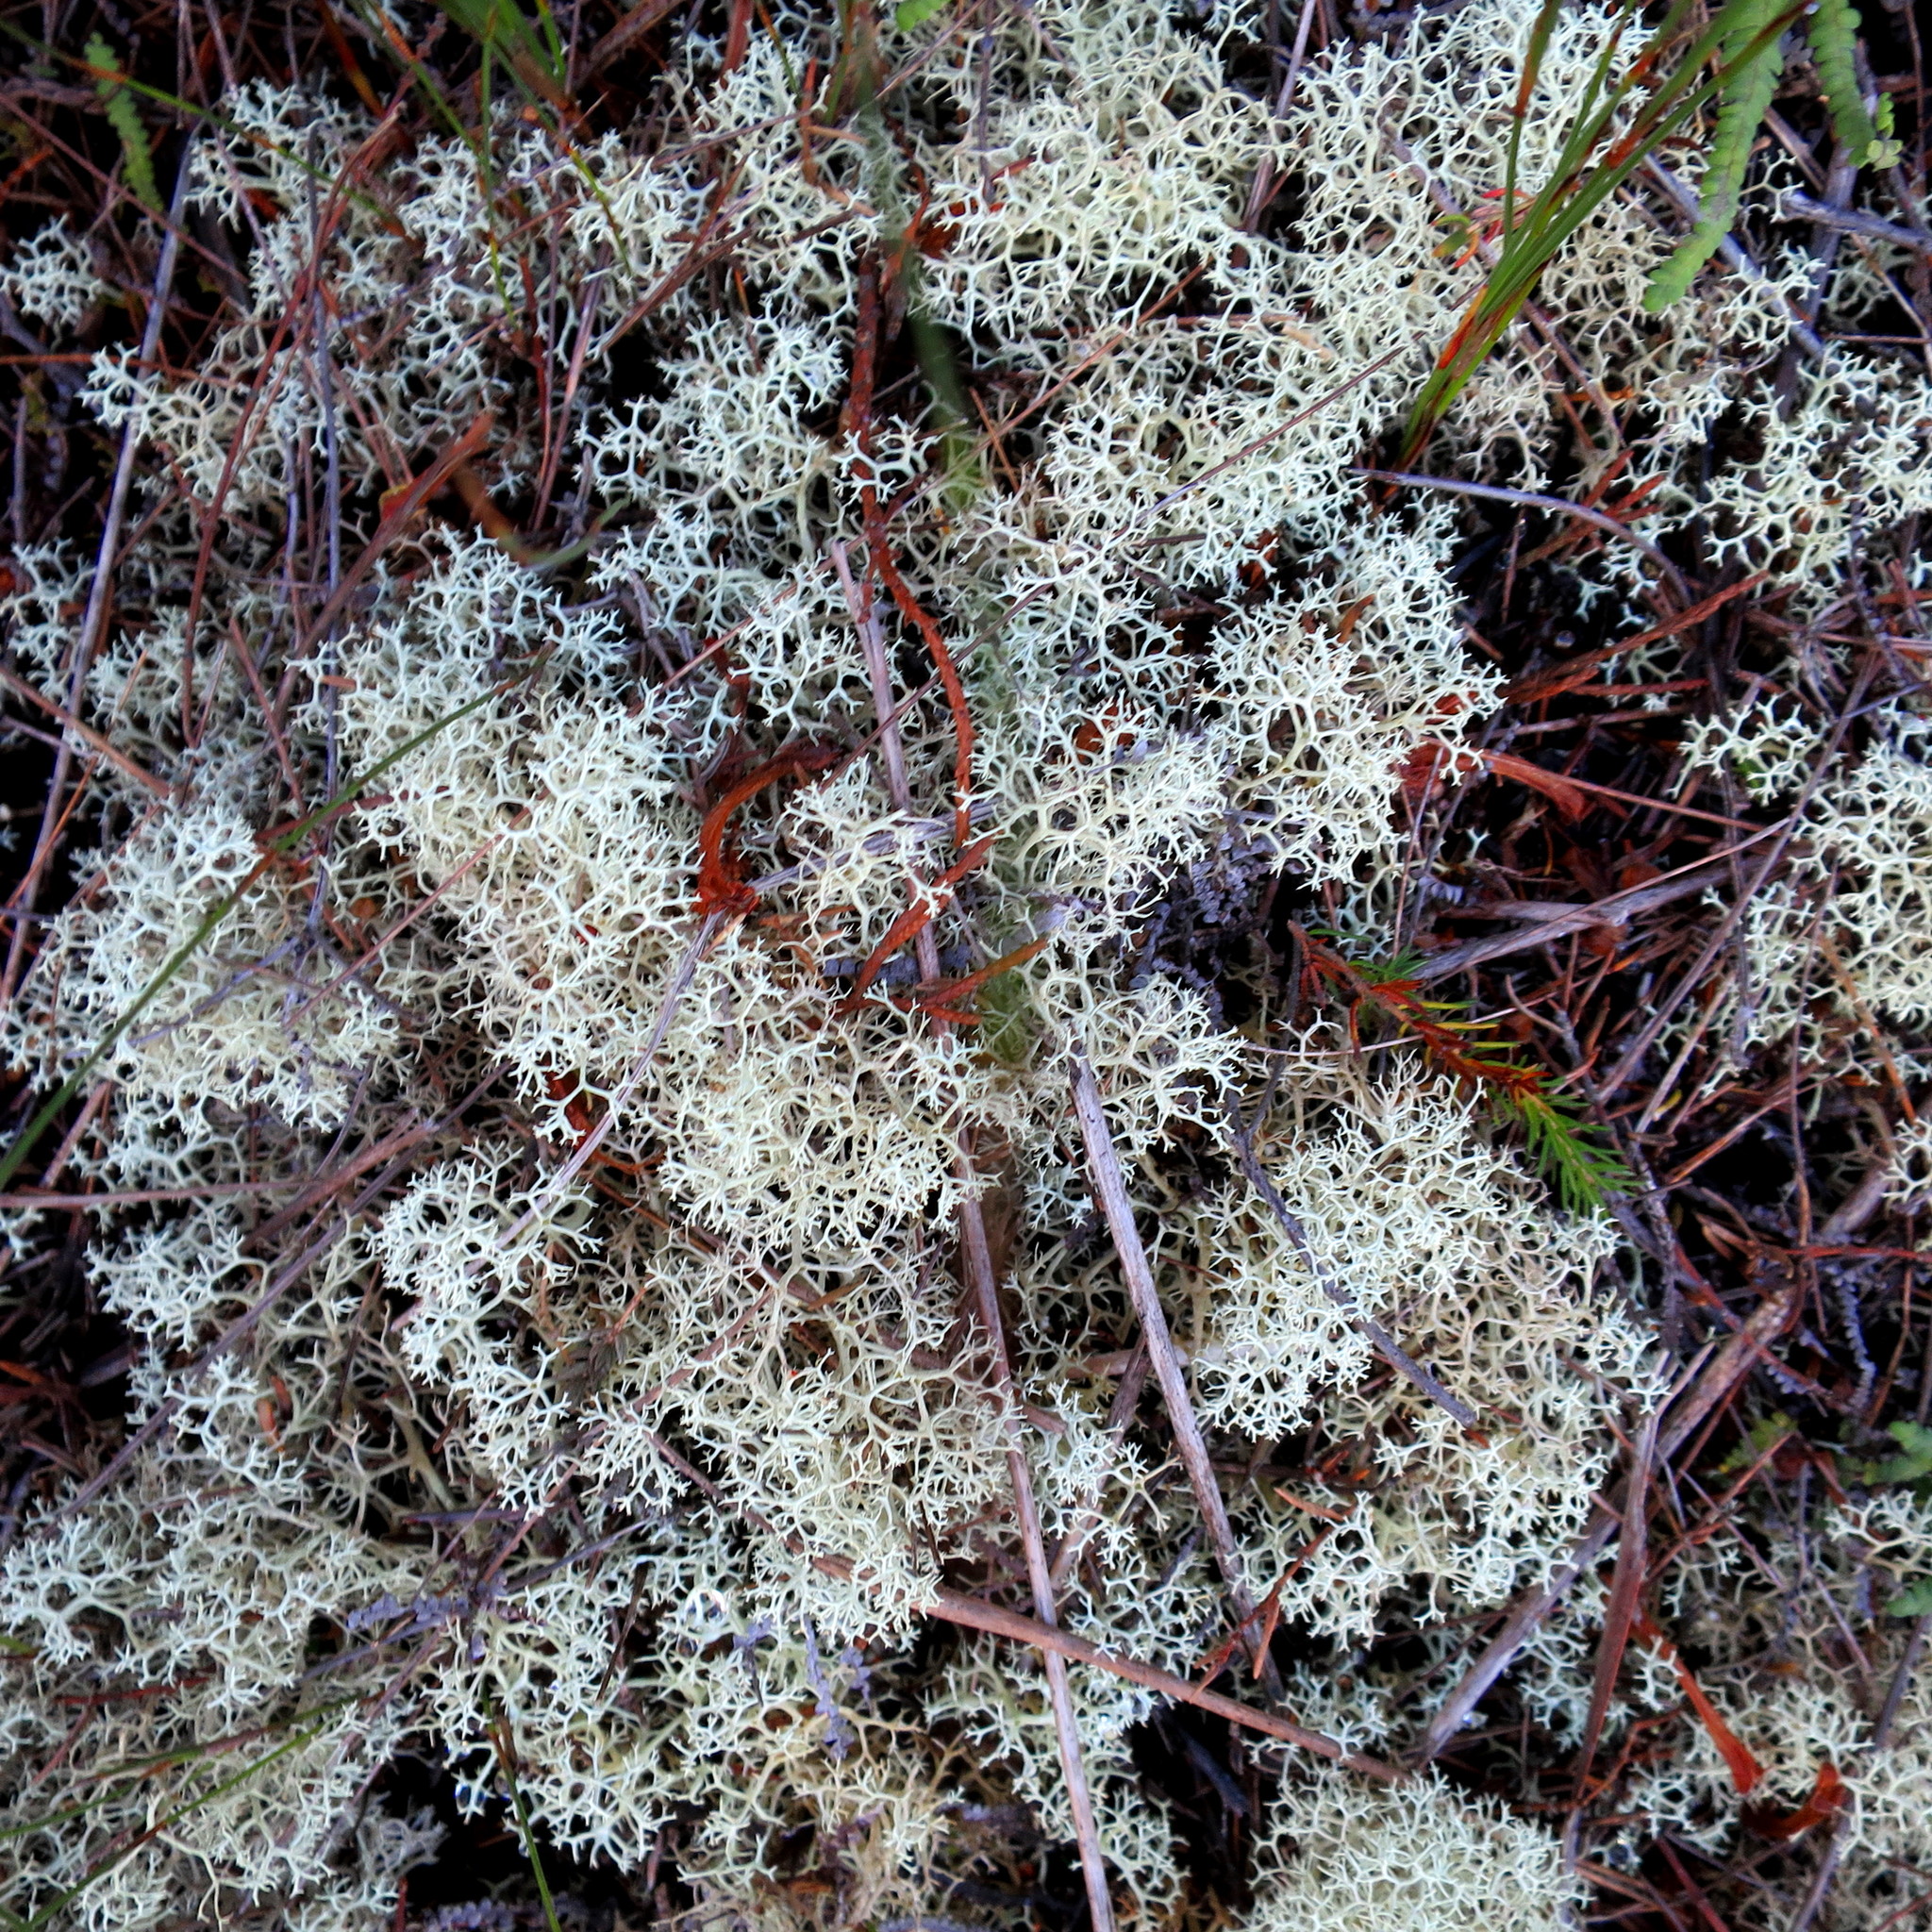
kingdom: Fungi
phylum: Ascomycota
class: Lecanoromycetes
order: Lecanorales
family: Cladoniaceae
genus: Cladonia
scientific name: Cladonia confusa
